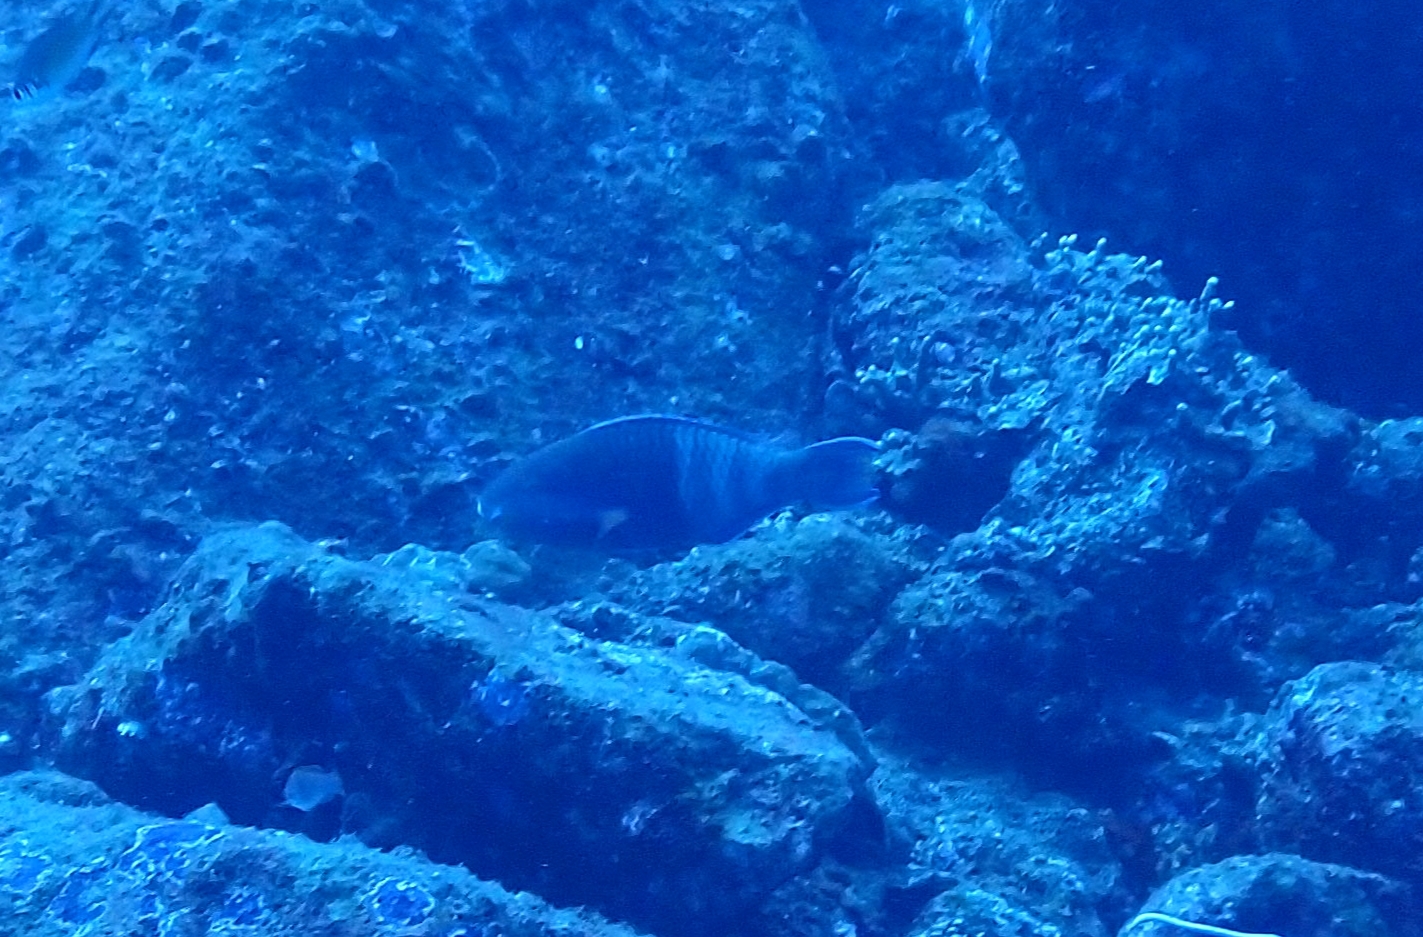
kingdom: Animalia
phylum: Chordata
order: Perciformes
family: Scaridae
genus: Scarus
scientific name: Scarus russelii
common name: Eclipse parrotfish
